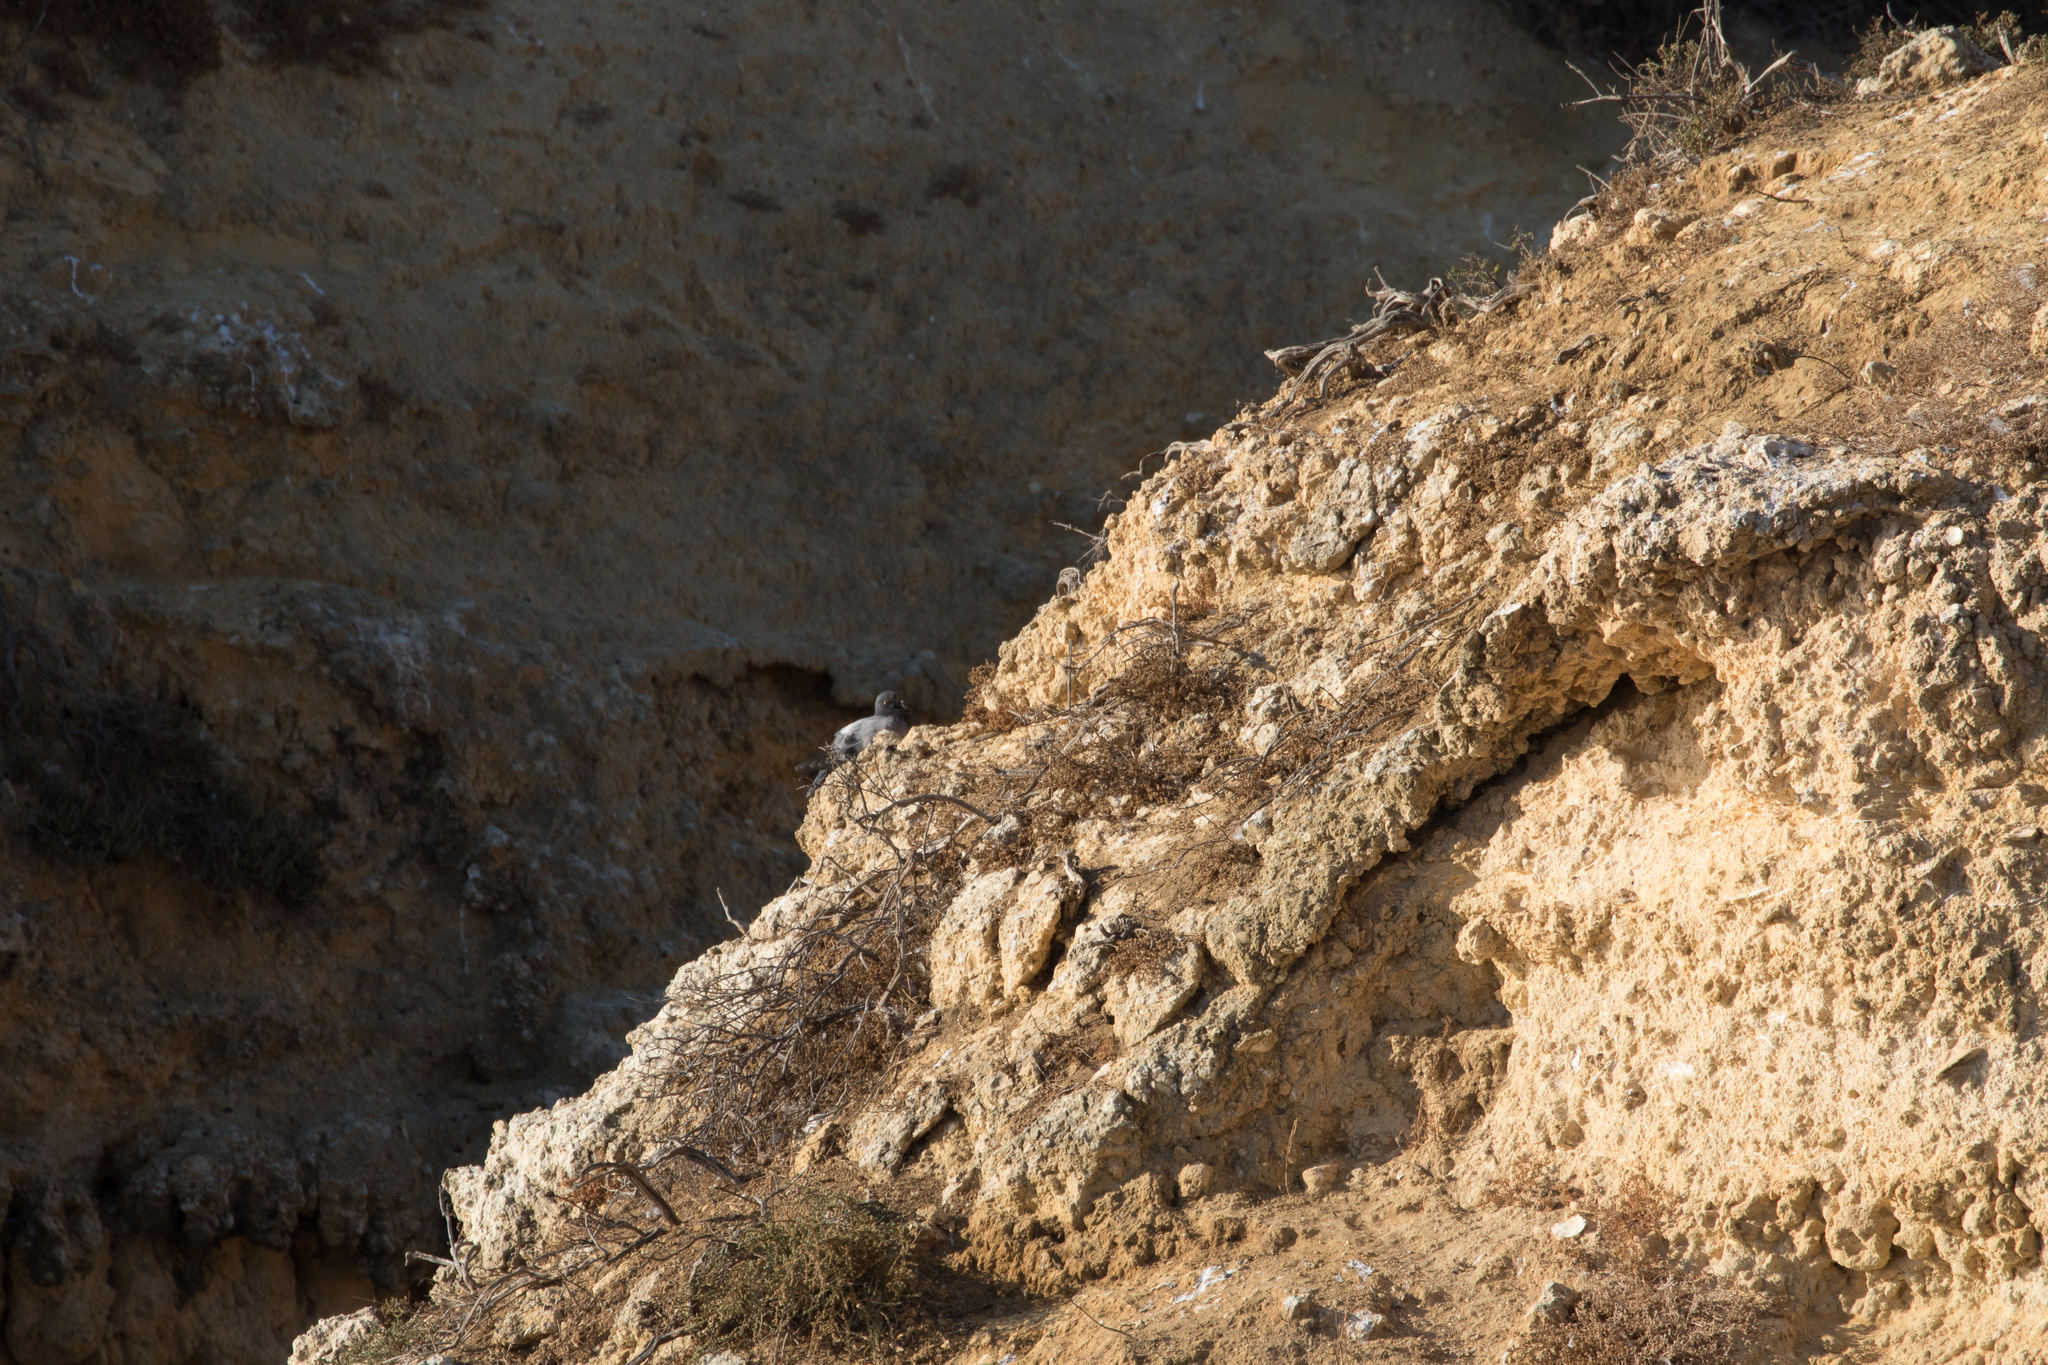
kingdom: Animalia
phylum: Chordata
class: Aves
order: Columbiformes
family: Columbidae
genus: Columba
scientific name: Columba livia
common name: Rock pigeon
